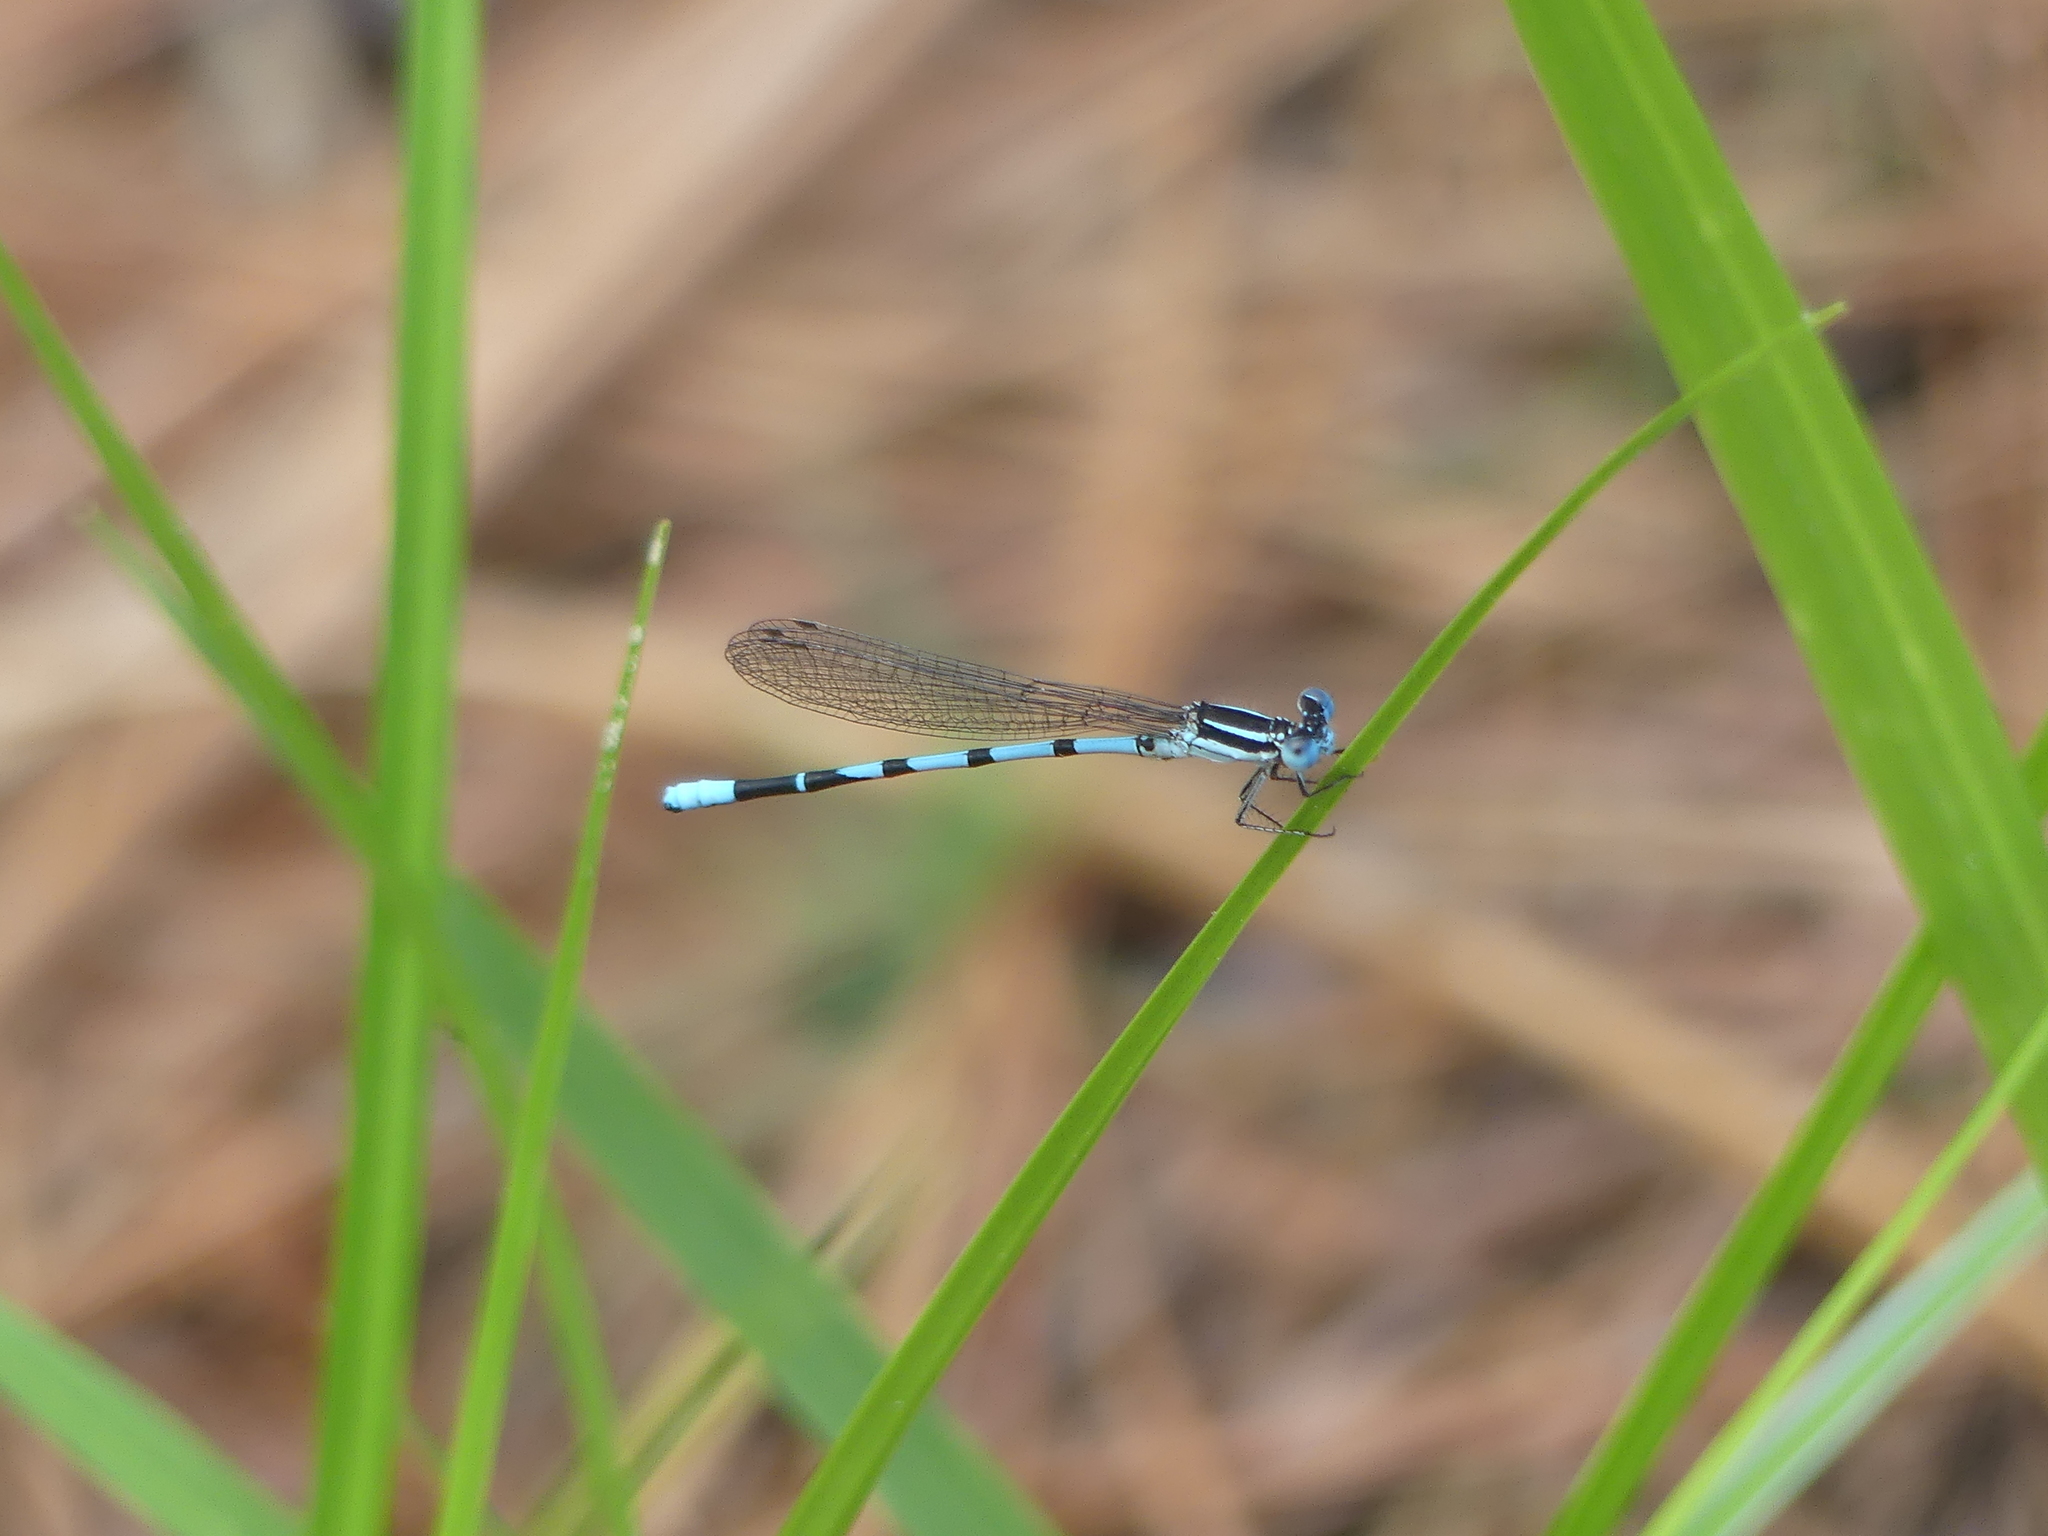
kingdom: Animalia
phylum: Arthropoda
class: Insecta
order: Odonata
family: Coenagrionidae
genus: Argia
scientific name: Argia bipunctulata
